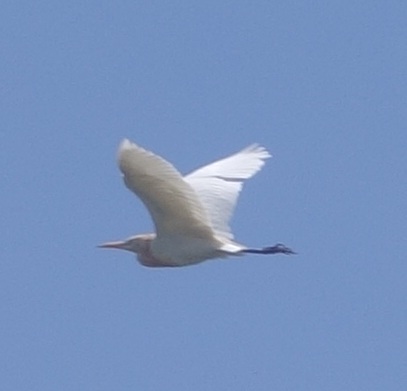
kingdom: Animalia
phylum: Chordata
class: Aves
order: Pelecaniformes
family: Ardeidae
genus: Bubulcus
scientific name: Bubulcus coromandus
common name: Eastern cattle egret
